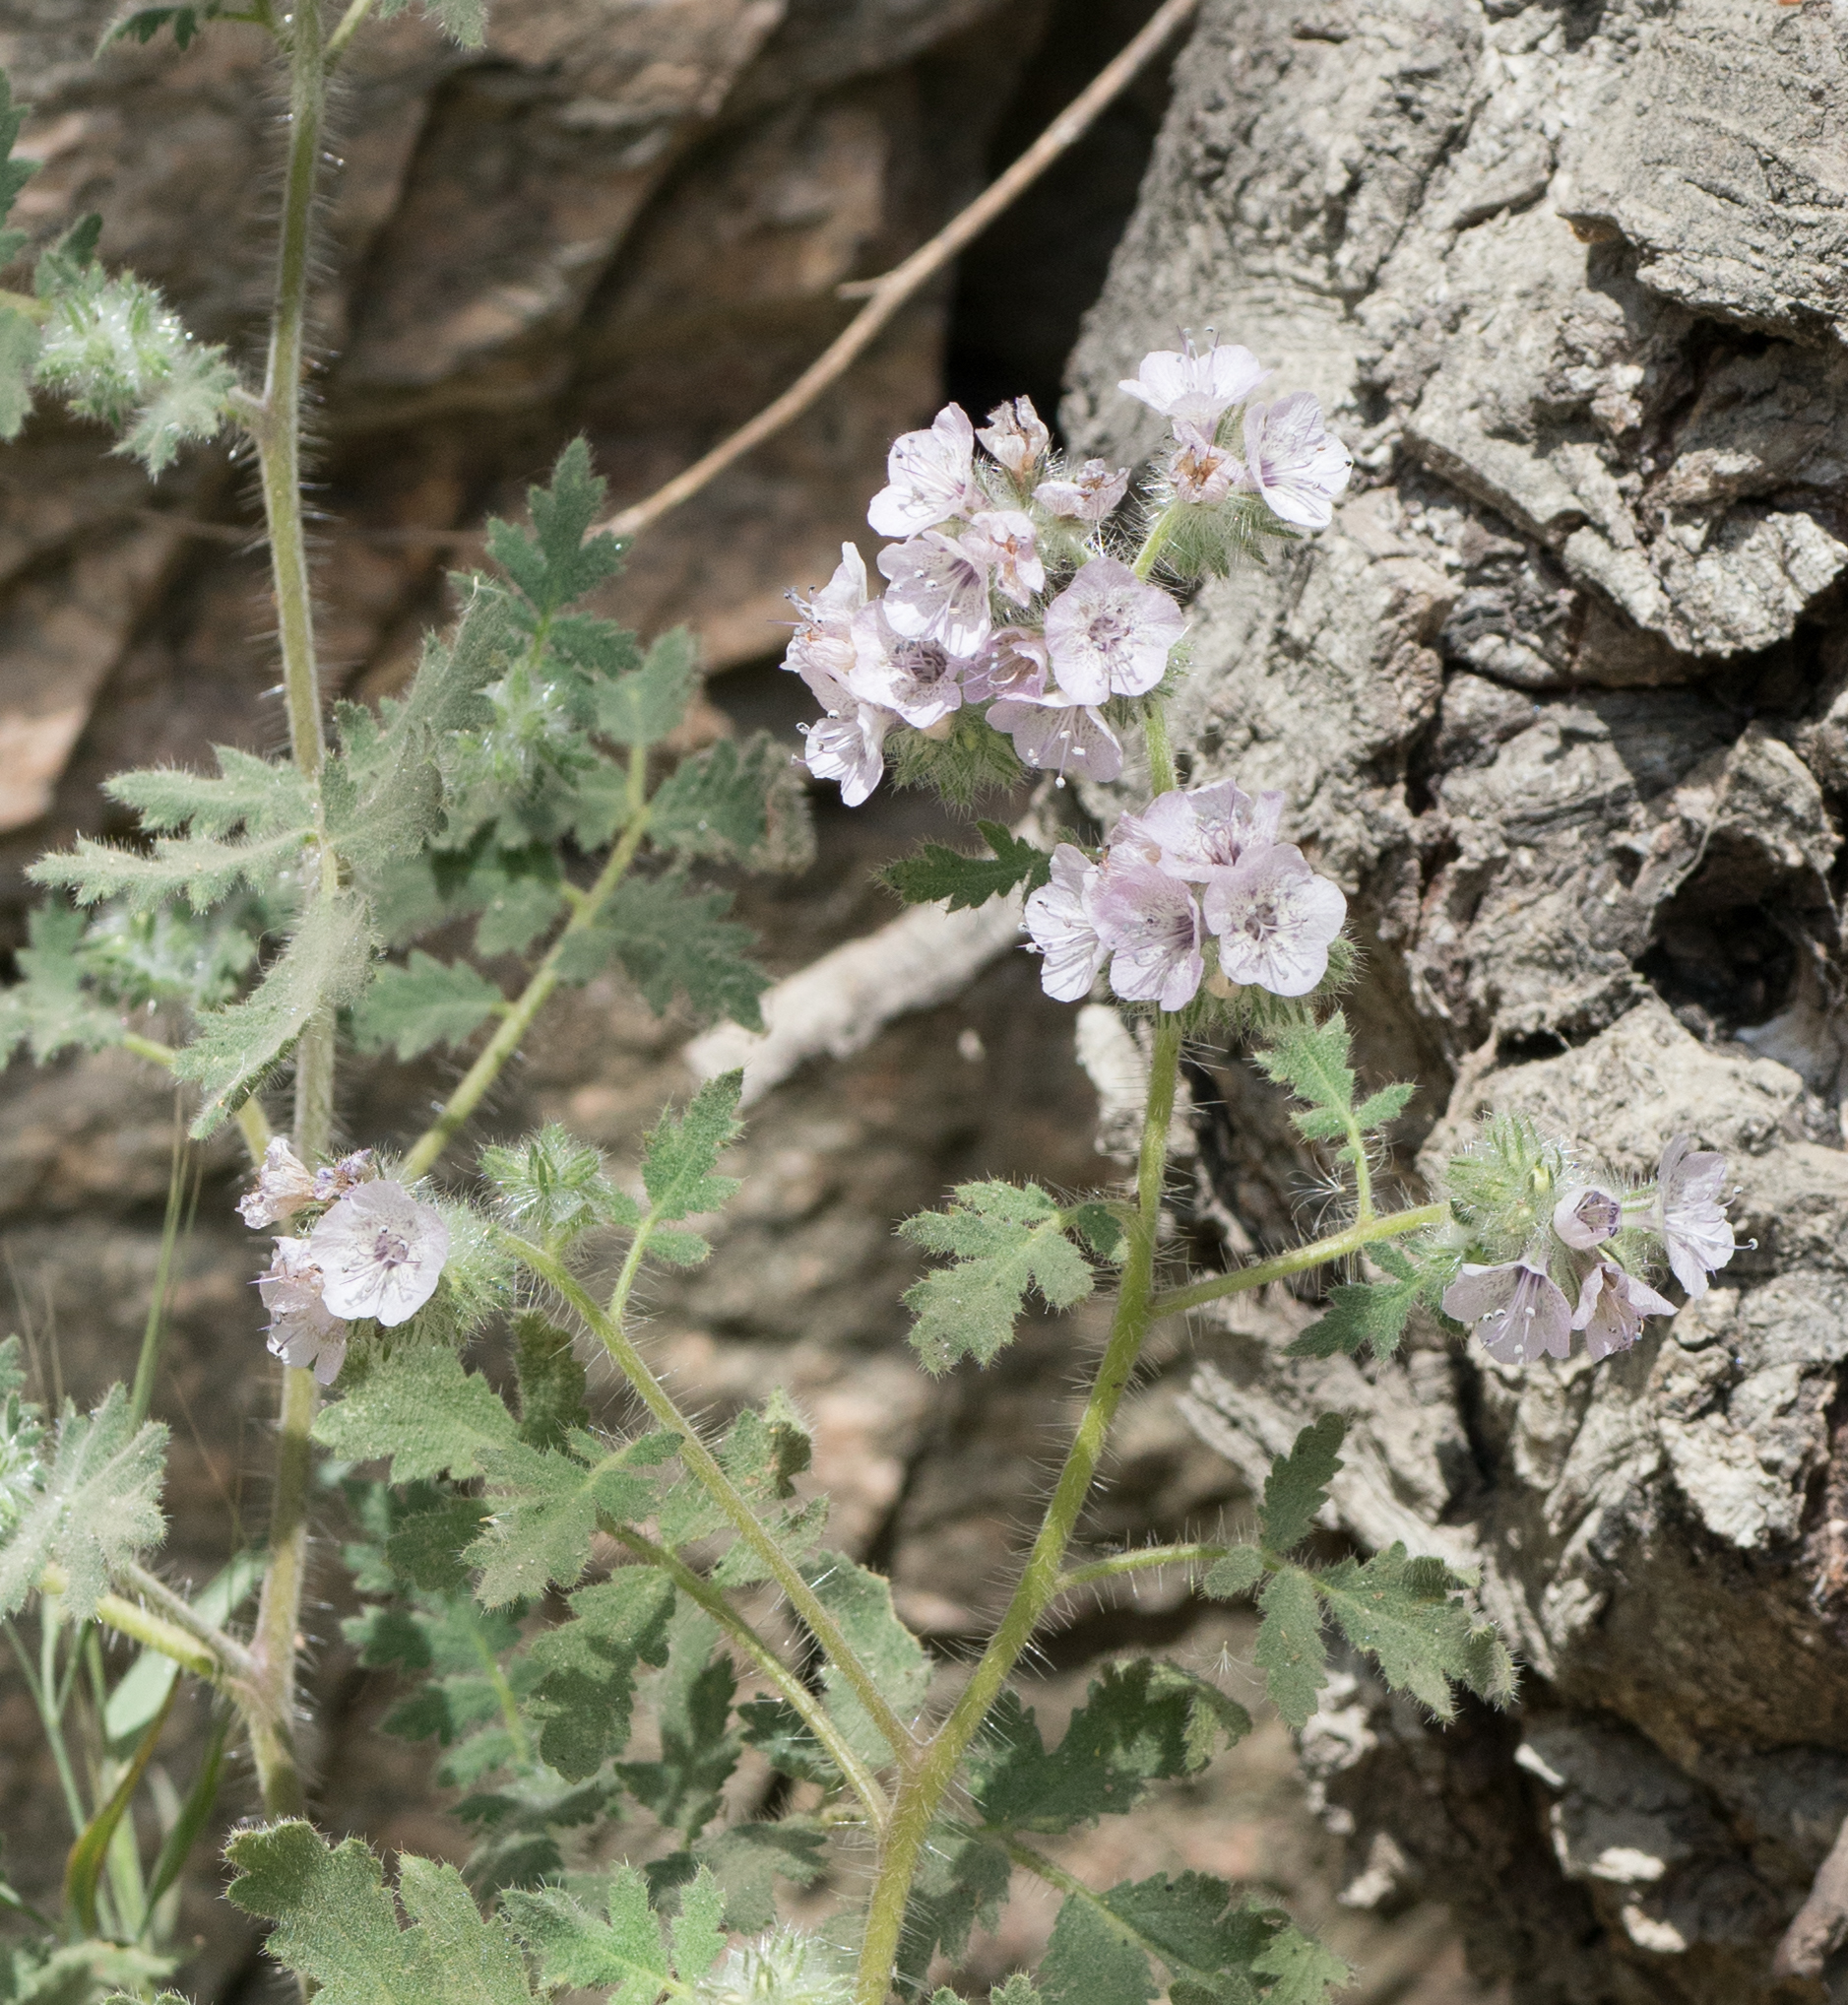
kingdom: Plantae
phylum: Tracheophyta
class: Magnoliopsida
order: Boraginales
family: Hydrophyllaceae
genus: Phacelia
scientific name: Phacelia cicutaria
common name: Caterpillar phacelia
